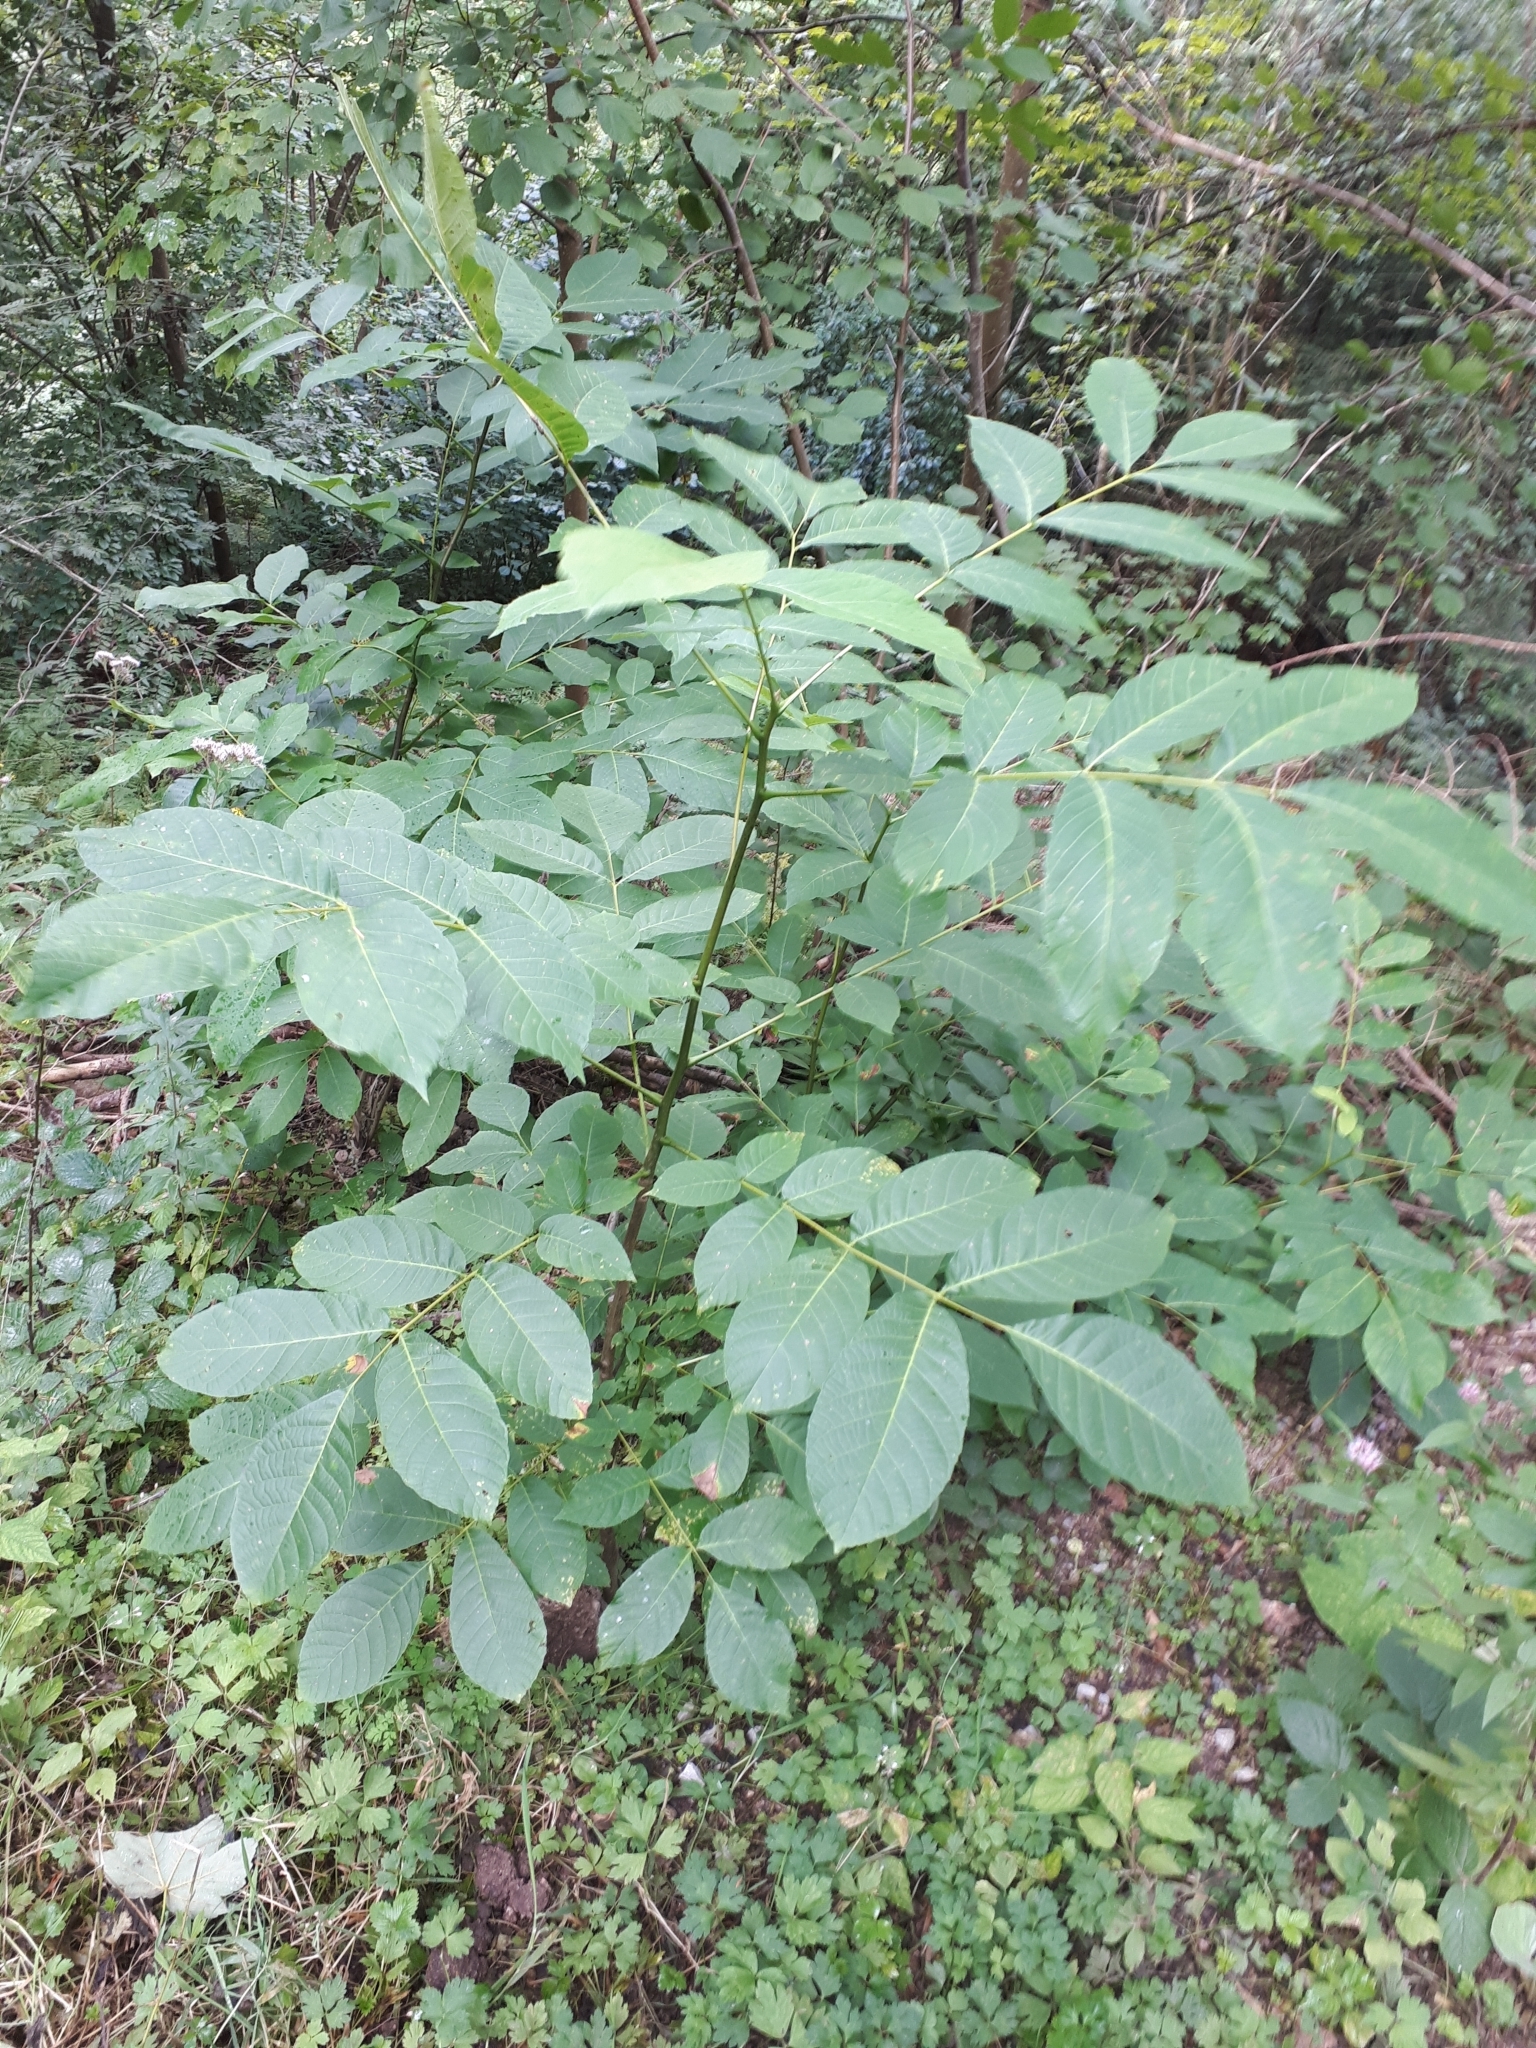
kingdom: Plantae
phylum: Tracheophyta
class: Magnoliopsida
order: Fagales
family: Juglandaceae
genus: Juglans
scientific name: Juglans regia
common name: Walnut
